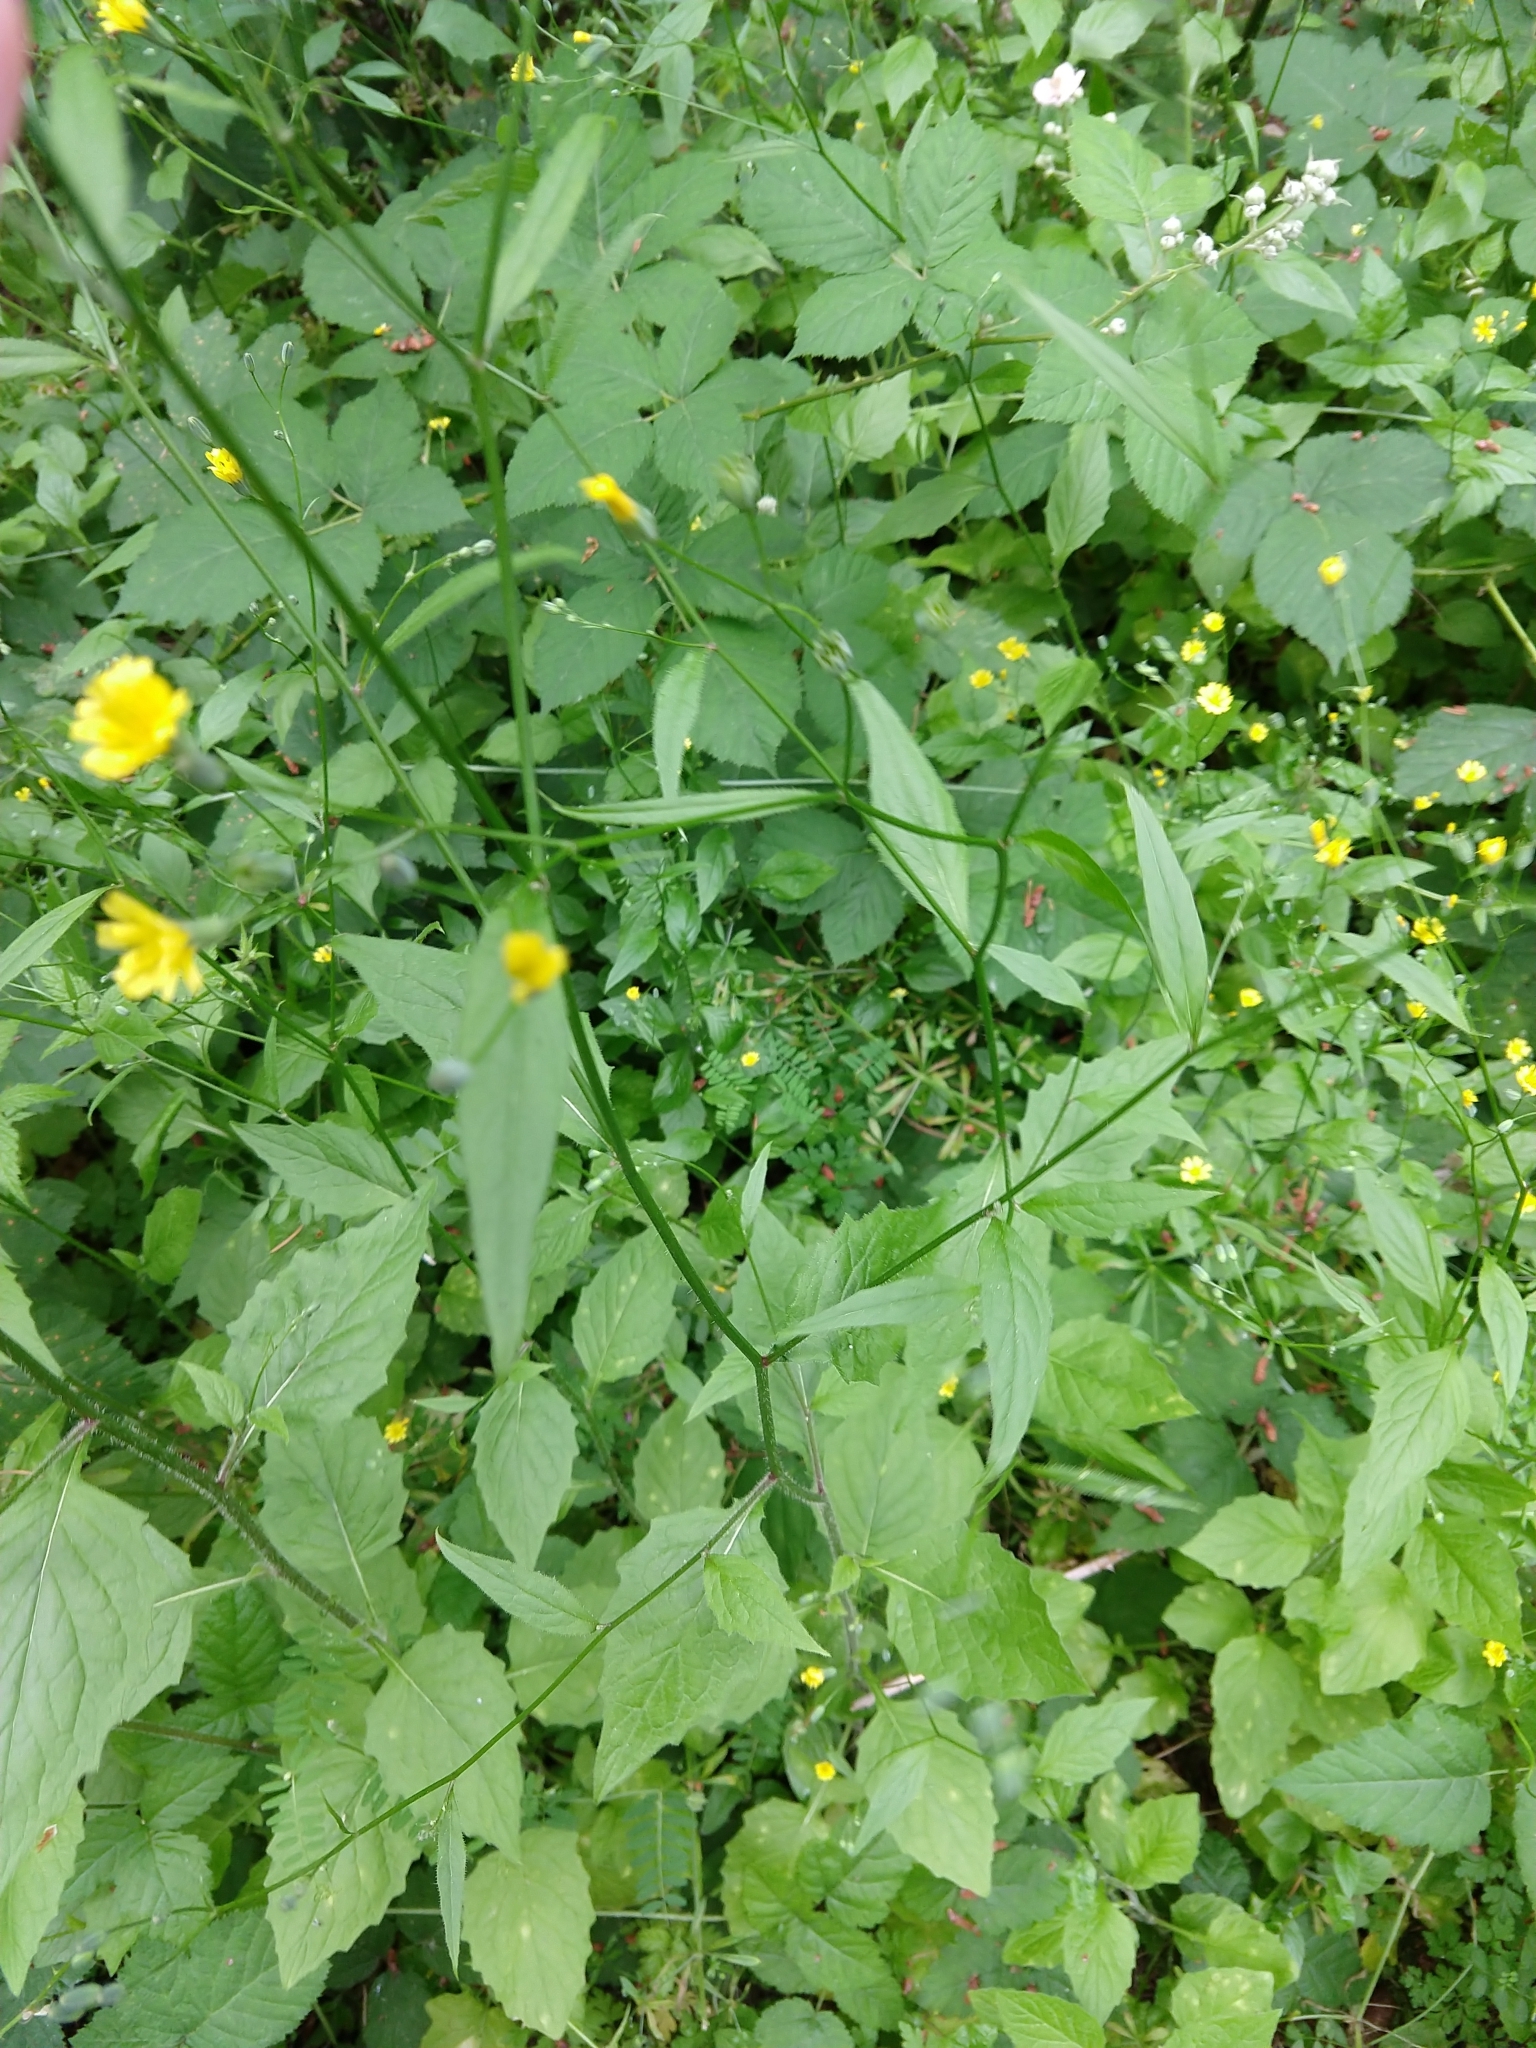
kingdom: Plantae
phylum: Tracheophyta
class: Magnoliopsida
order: Asterales
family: Asteraceae
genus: Lapsana
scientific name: Lapsana communis
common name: Nipplewort
